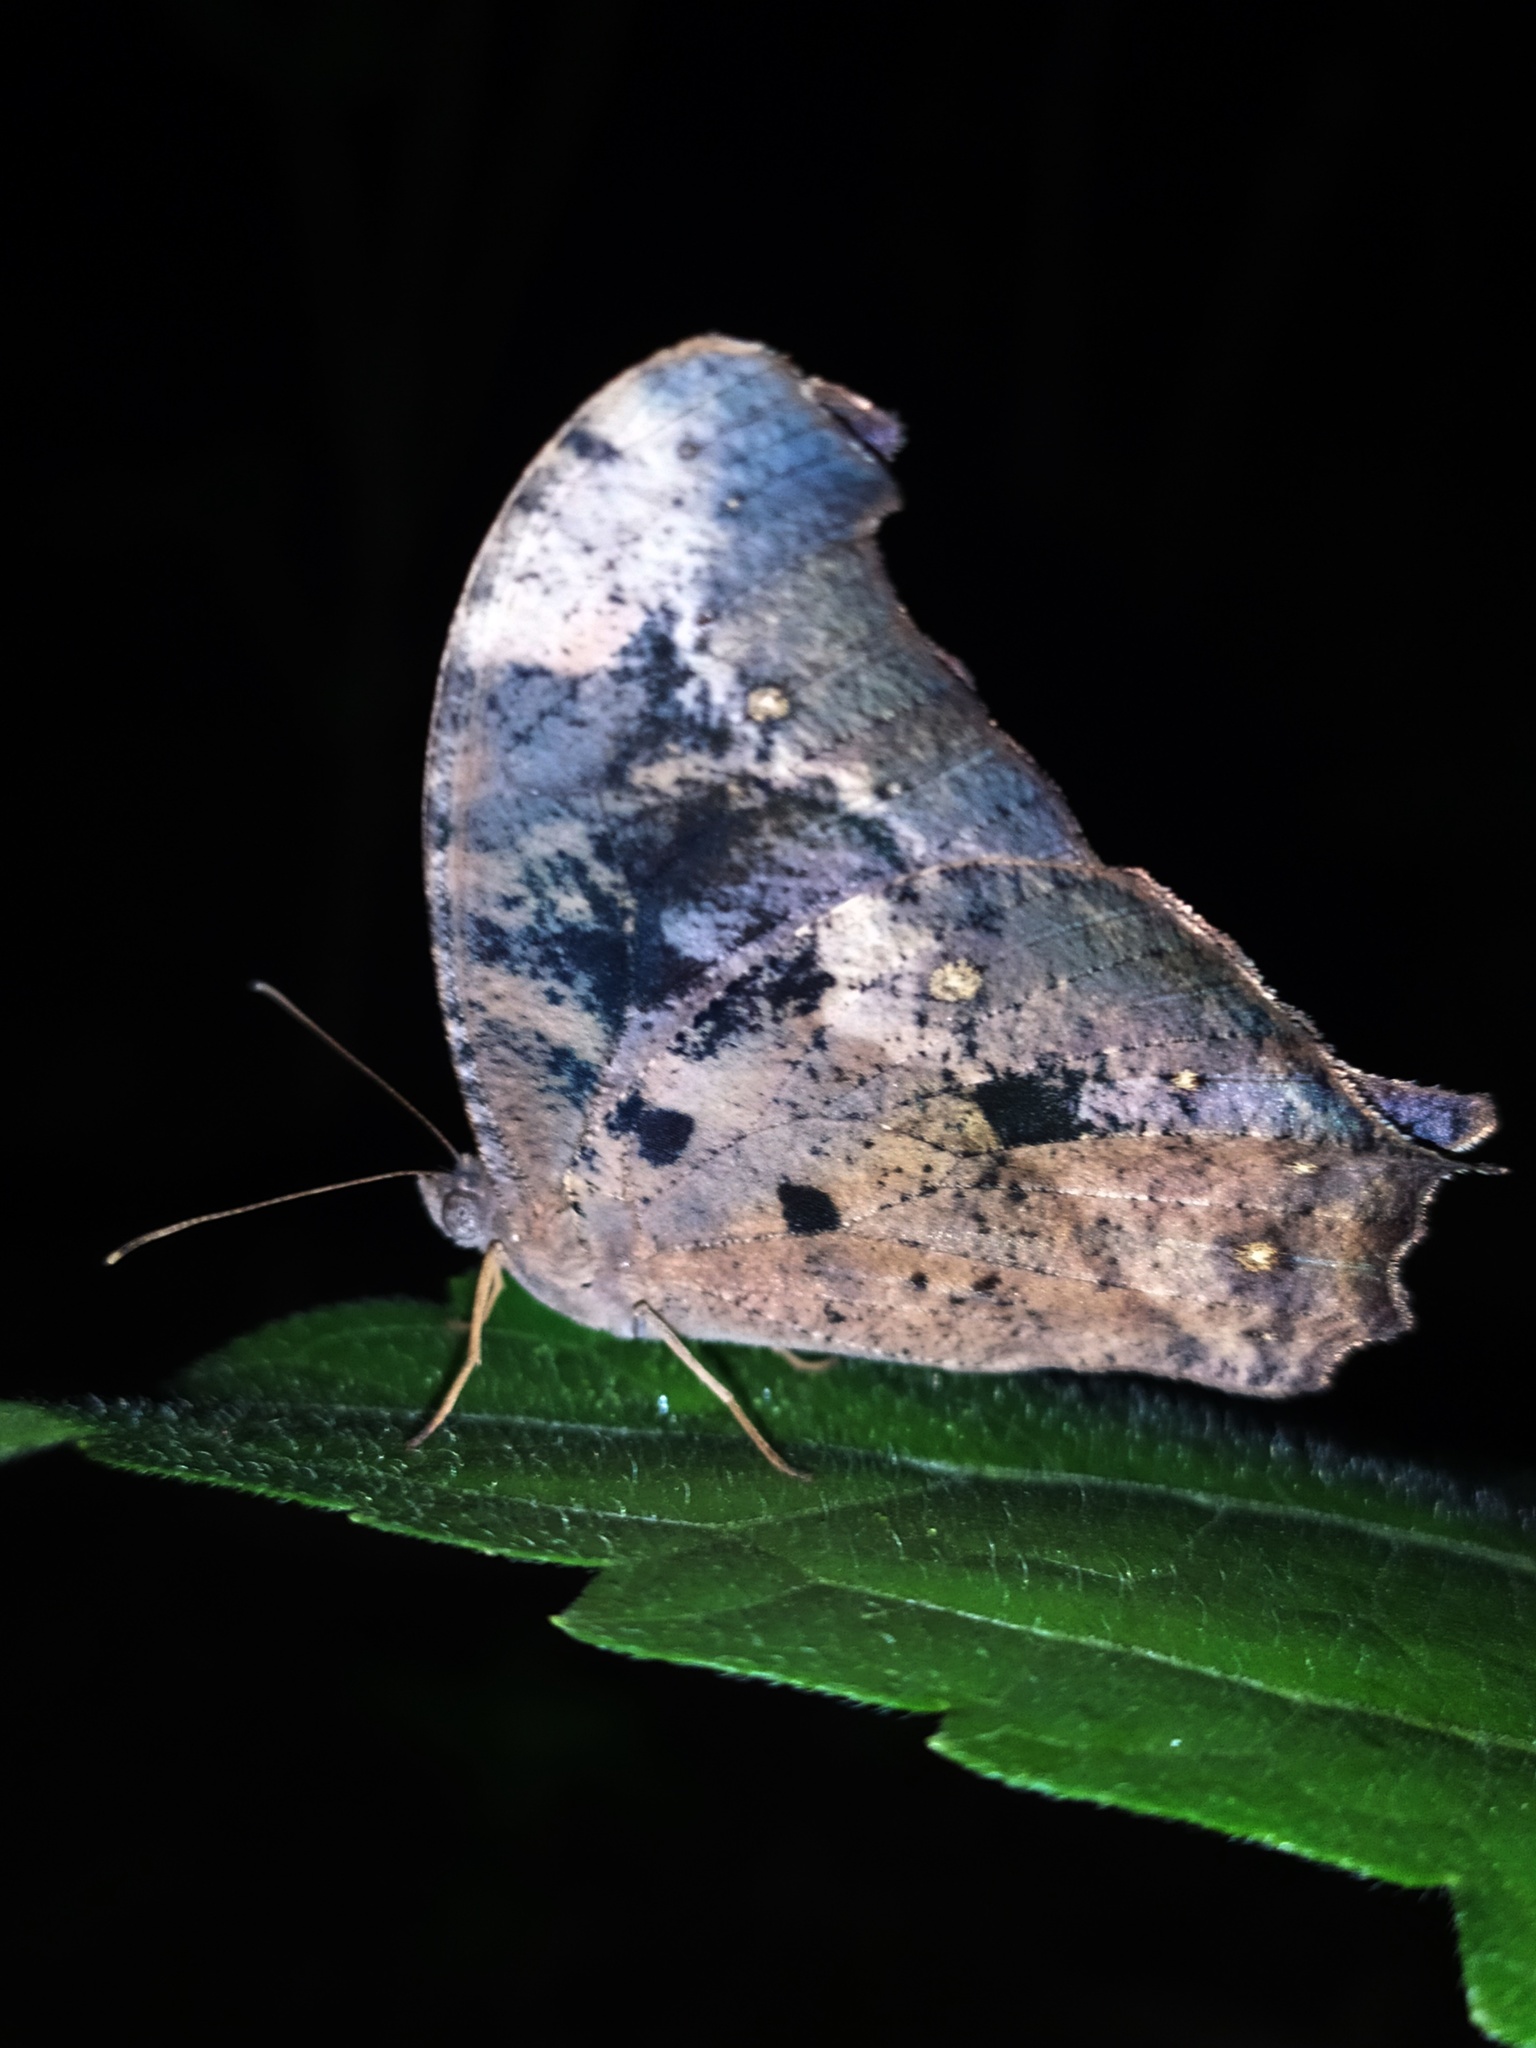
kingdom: Animalia
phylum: Arthropoda
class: Insecta
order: Lepidoptera
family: Nymphalidae
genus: Melanitis
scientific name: Melanitis leda
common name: Twilight brown
